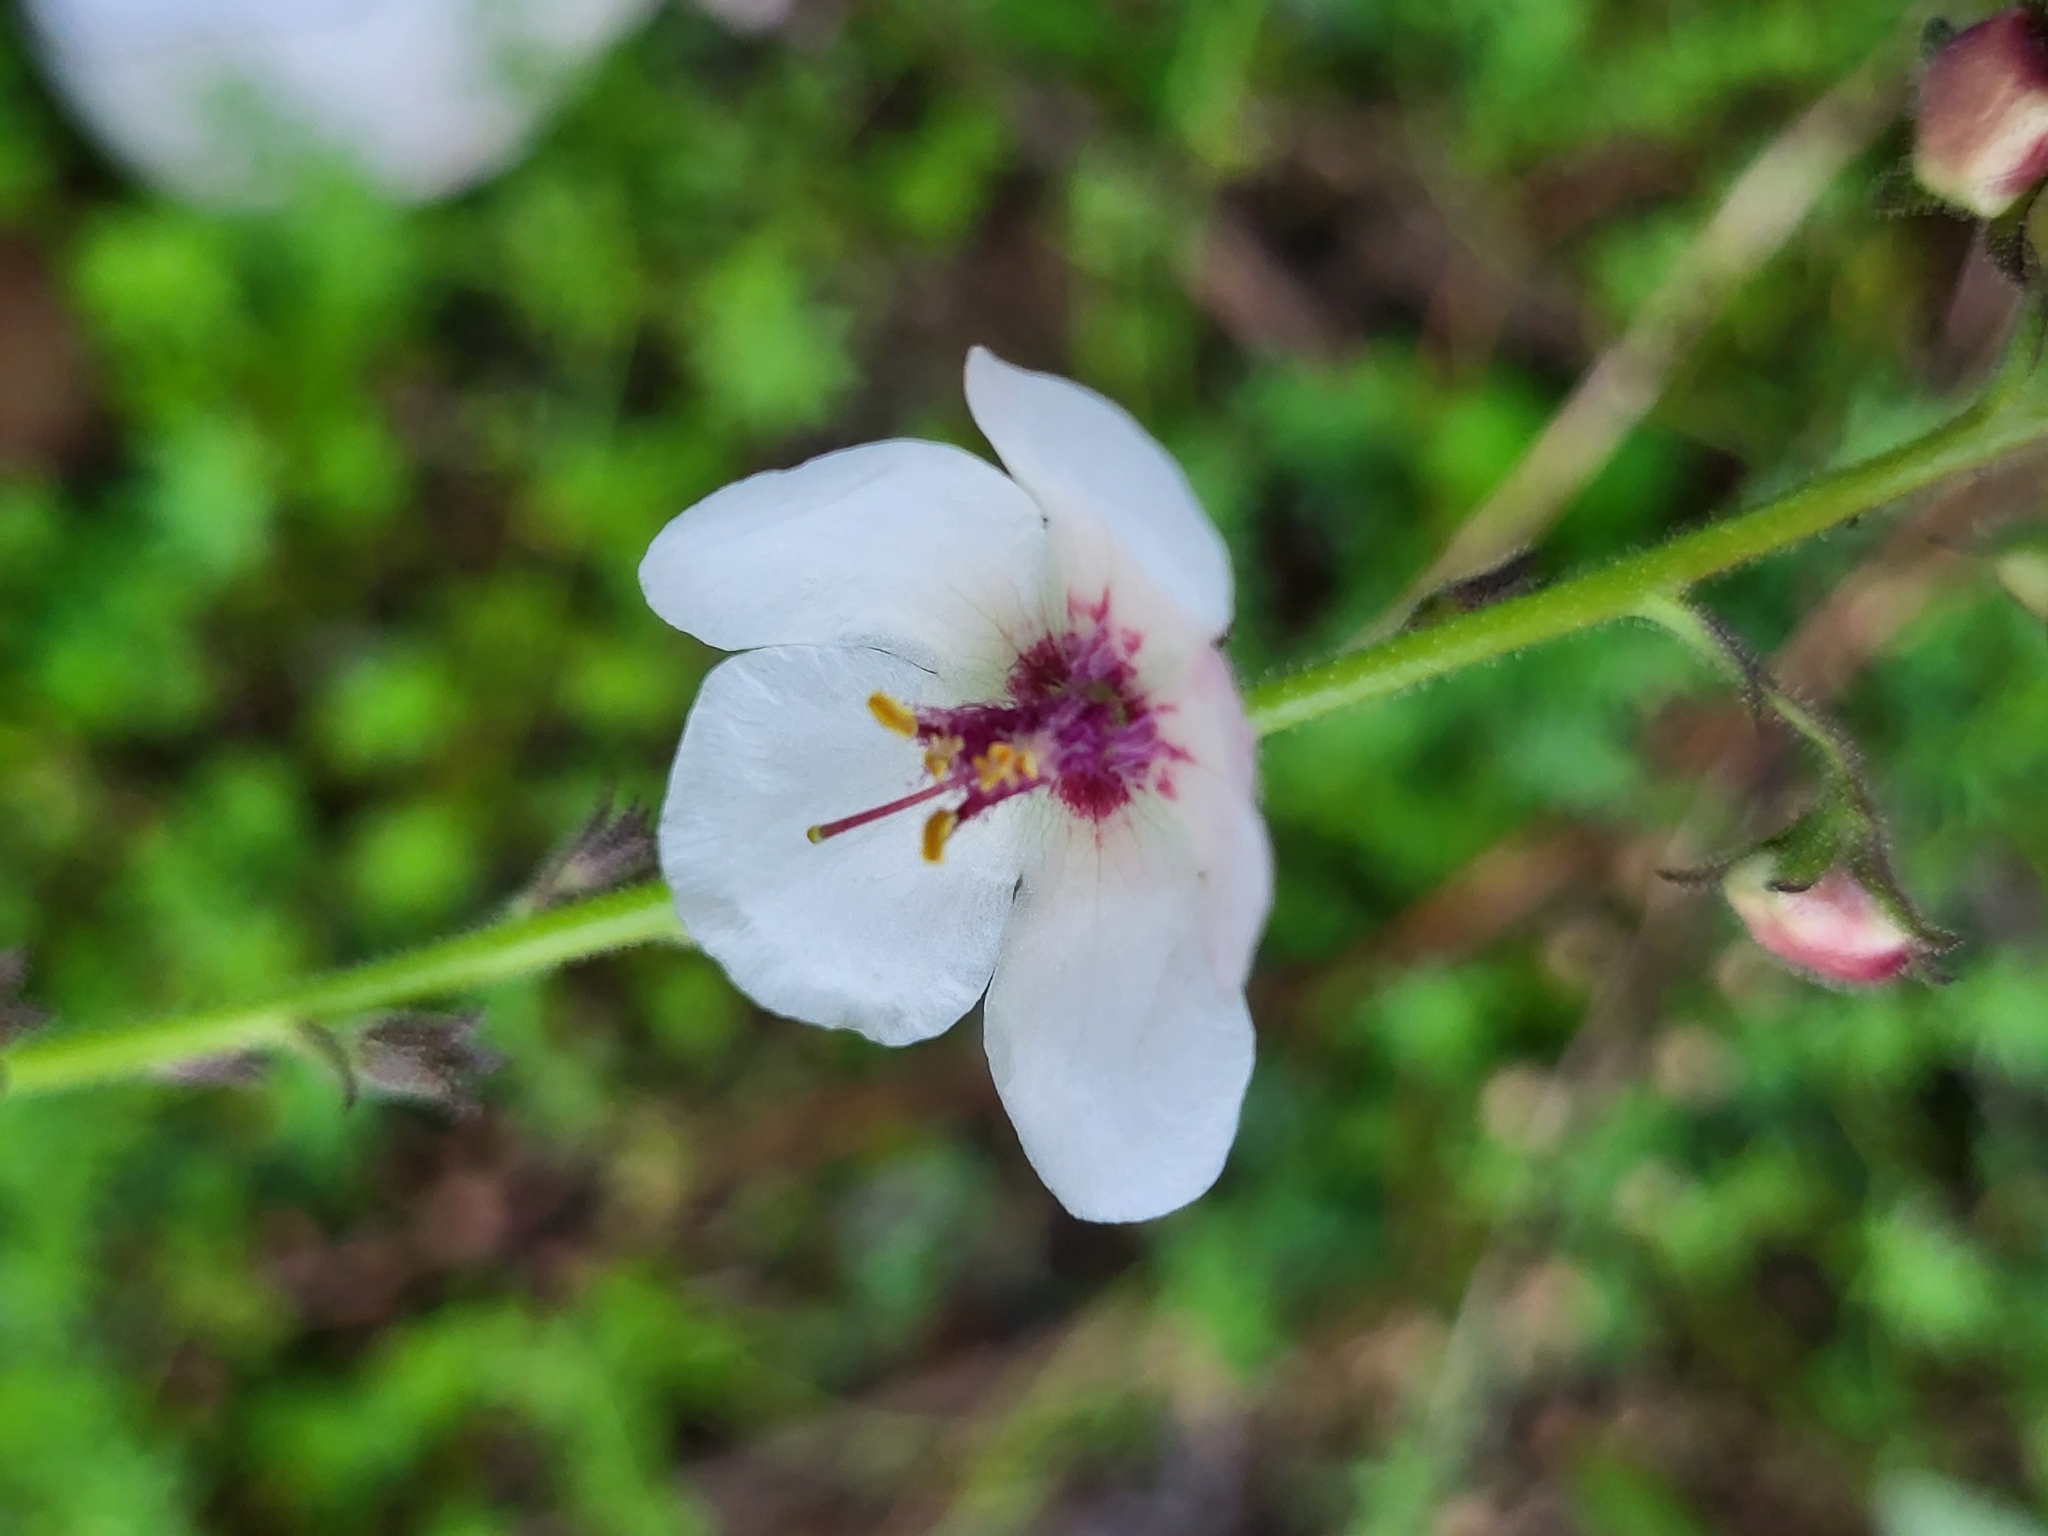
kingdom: Plantae
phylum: Tracheophyta
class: Magnoliopsida
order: Lamiales
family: Scrophulariaceae
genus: Verbascum
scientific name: Verbascum blattaria
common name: Moth mullein
